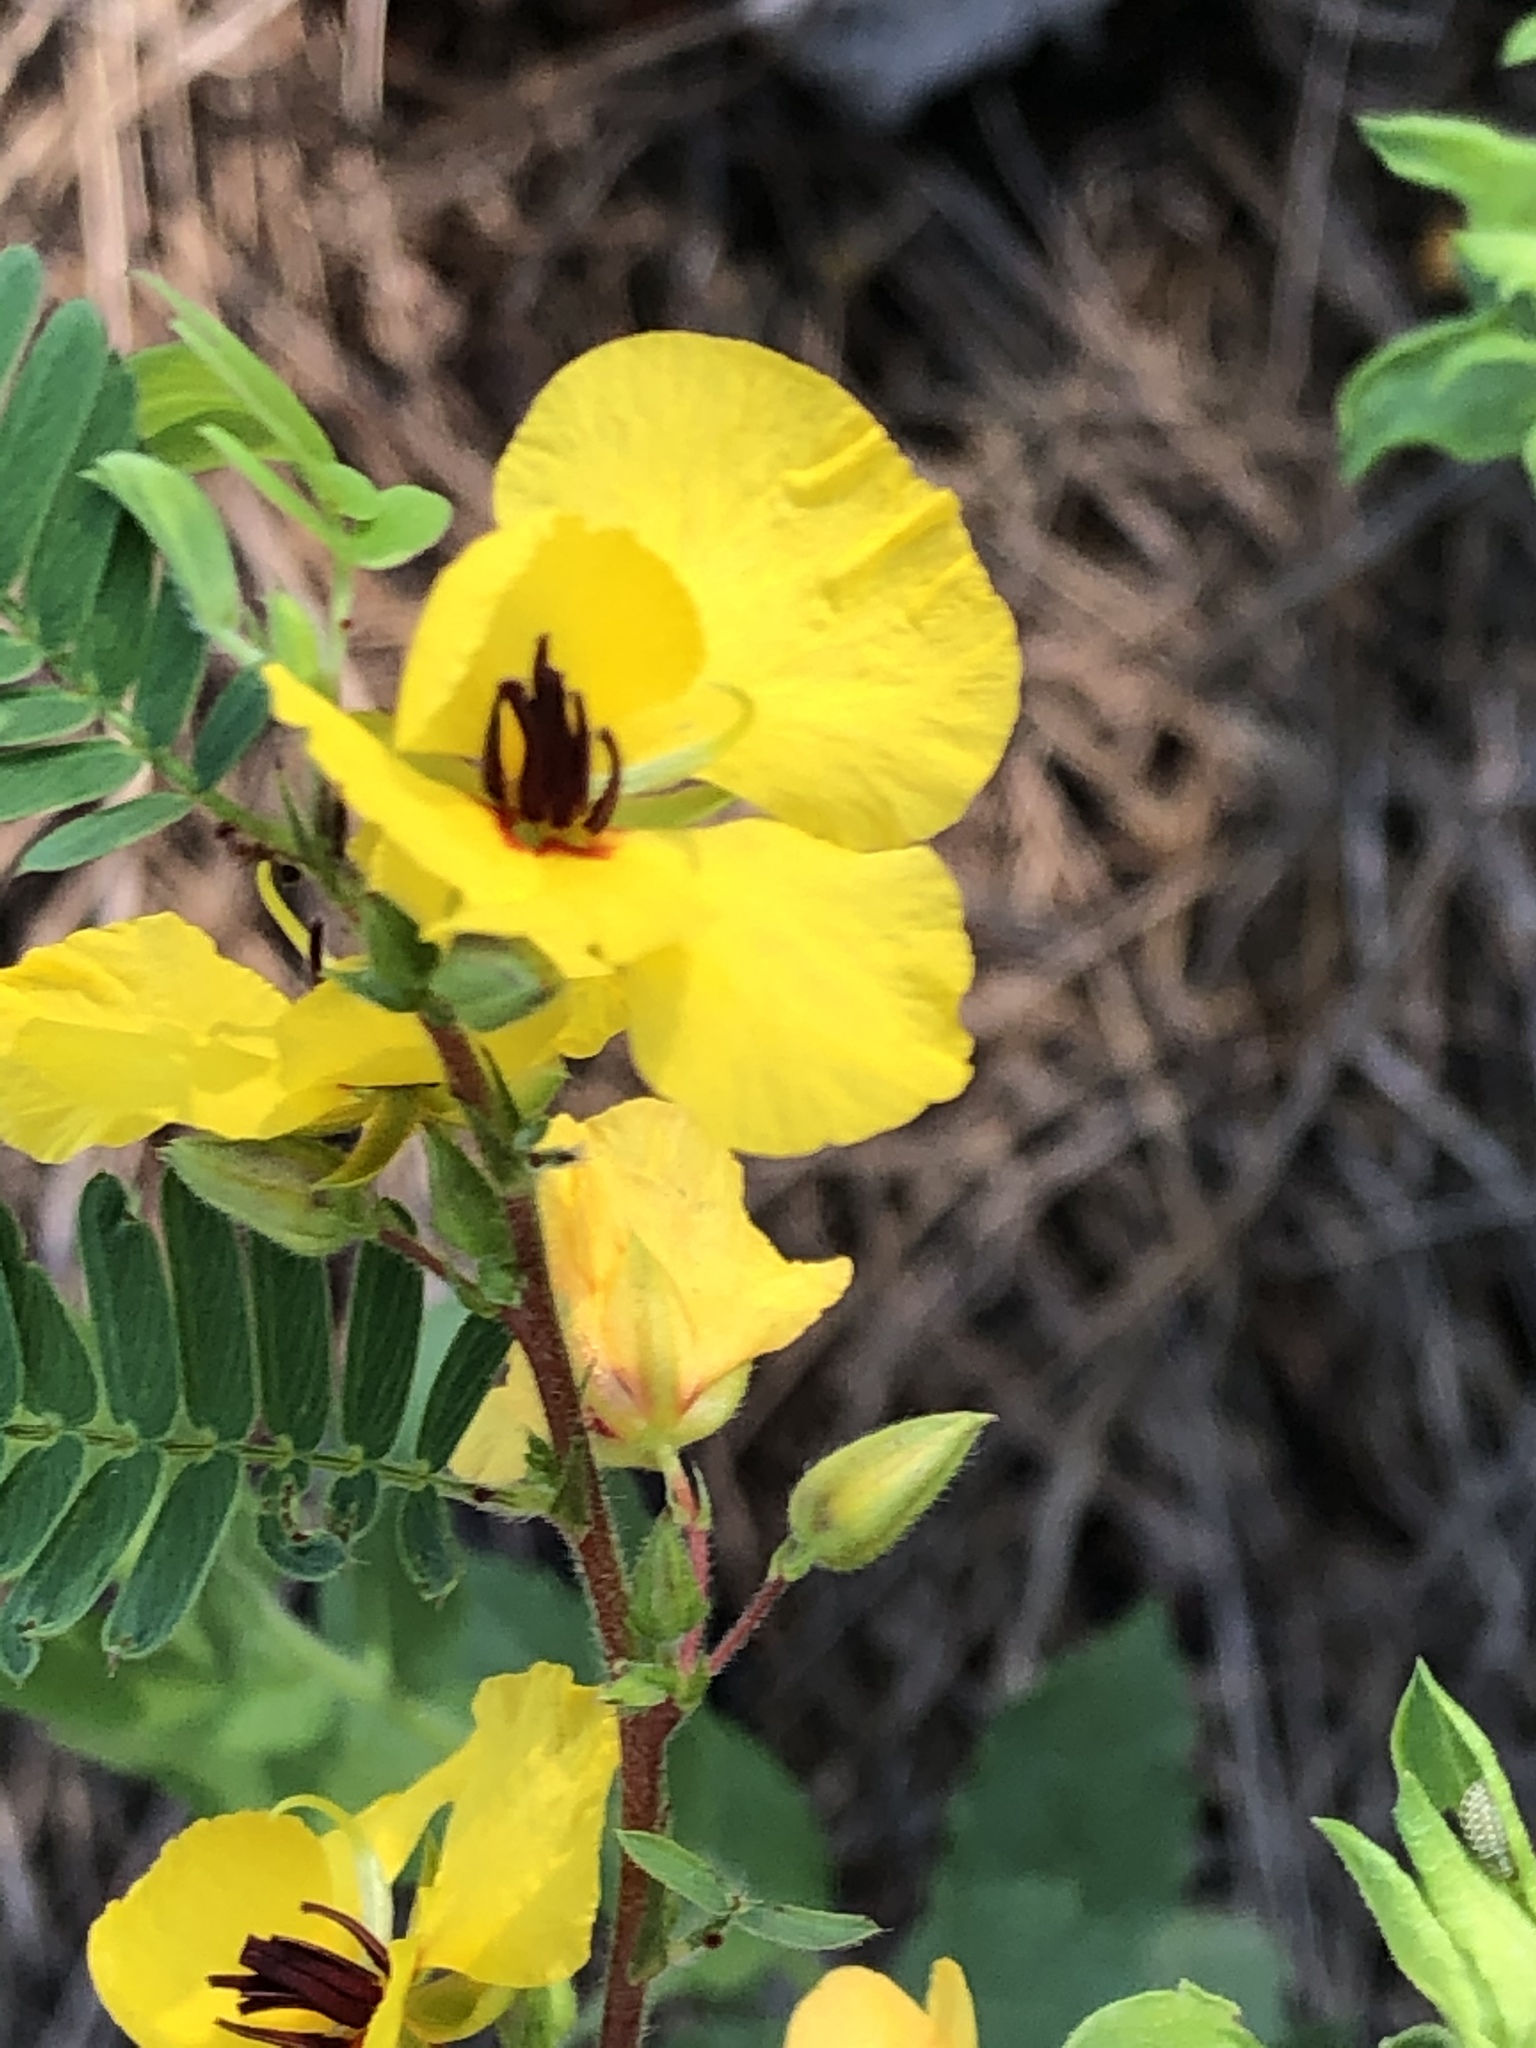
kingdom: Plantae
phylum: Tracheophyta
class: Magnoliopsida
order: Fabales
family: Fabaceae
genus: Chamaecrista
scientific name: Chamaecrista fasciculata
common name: Golden cassia
